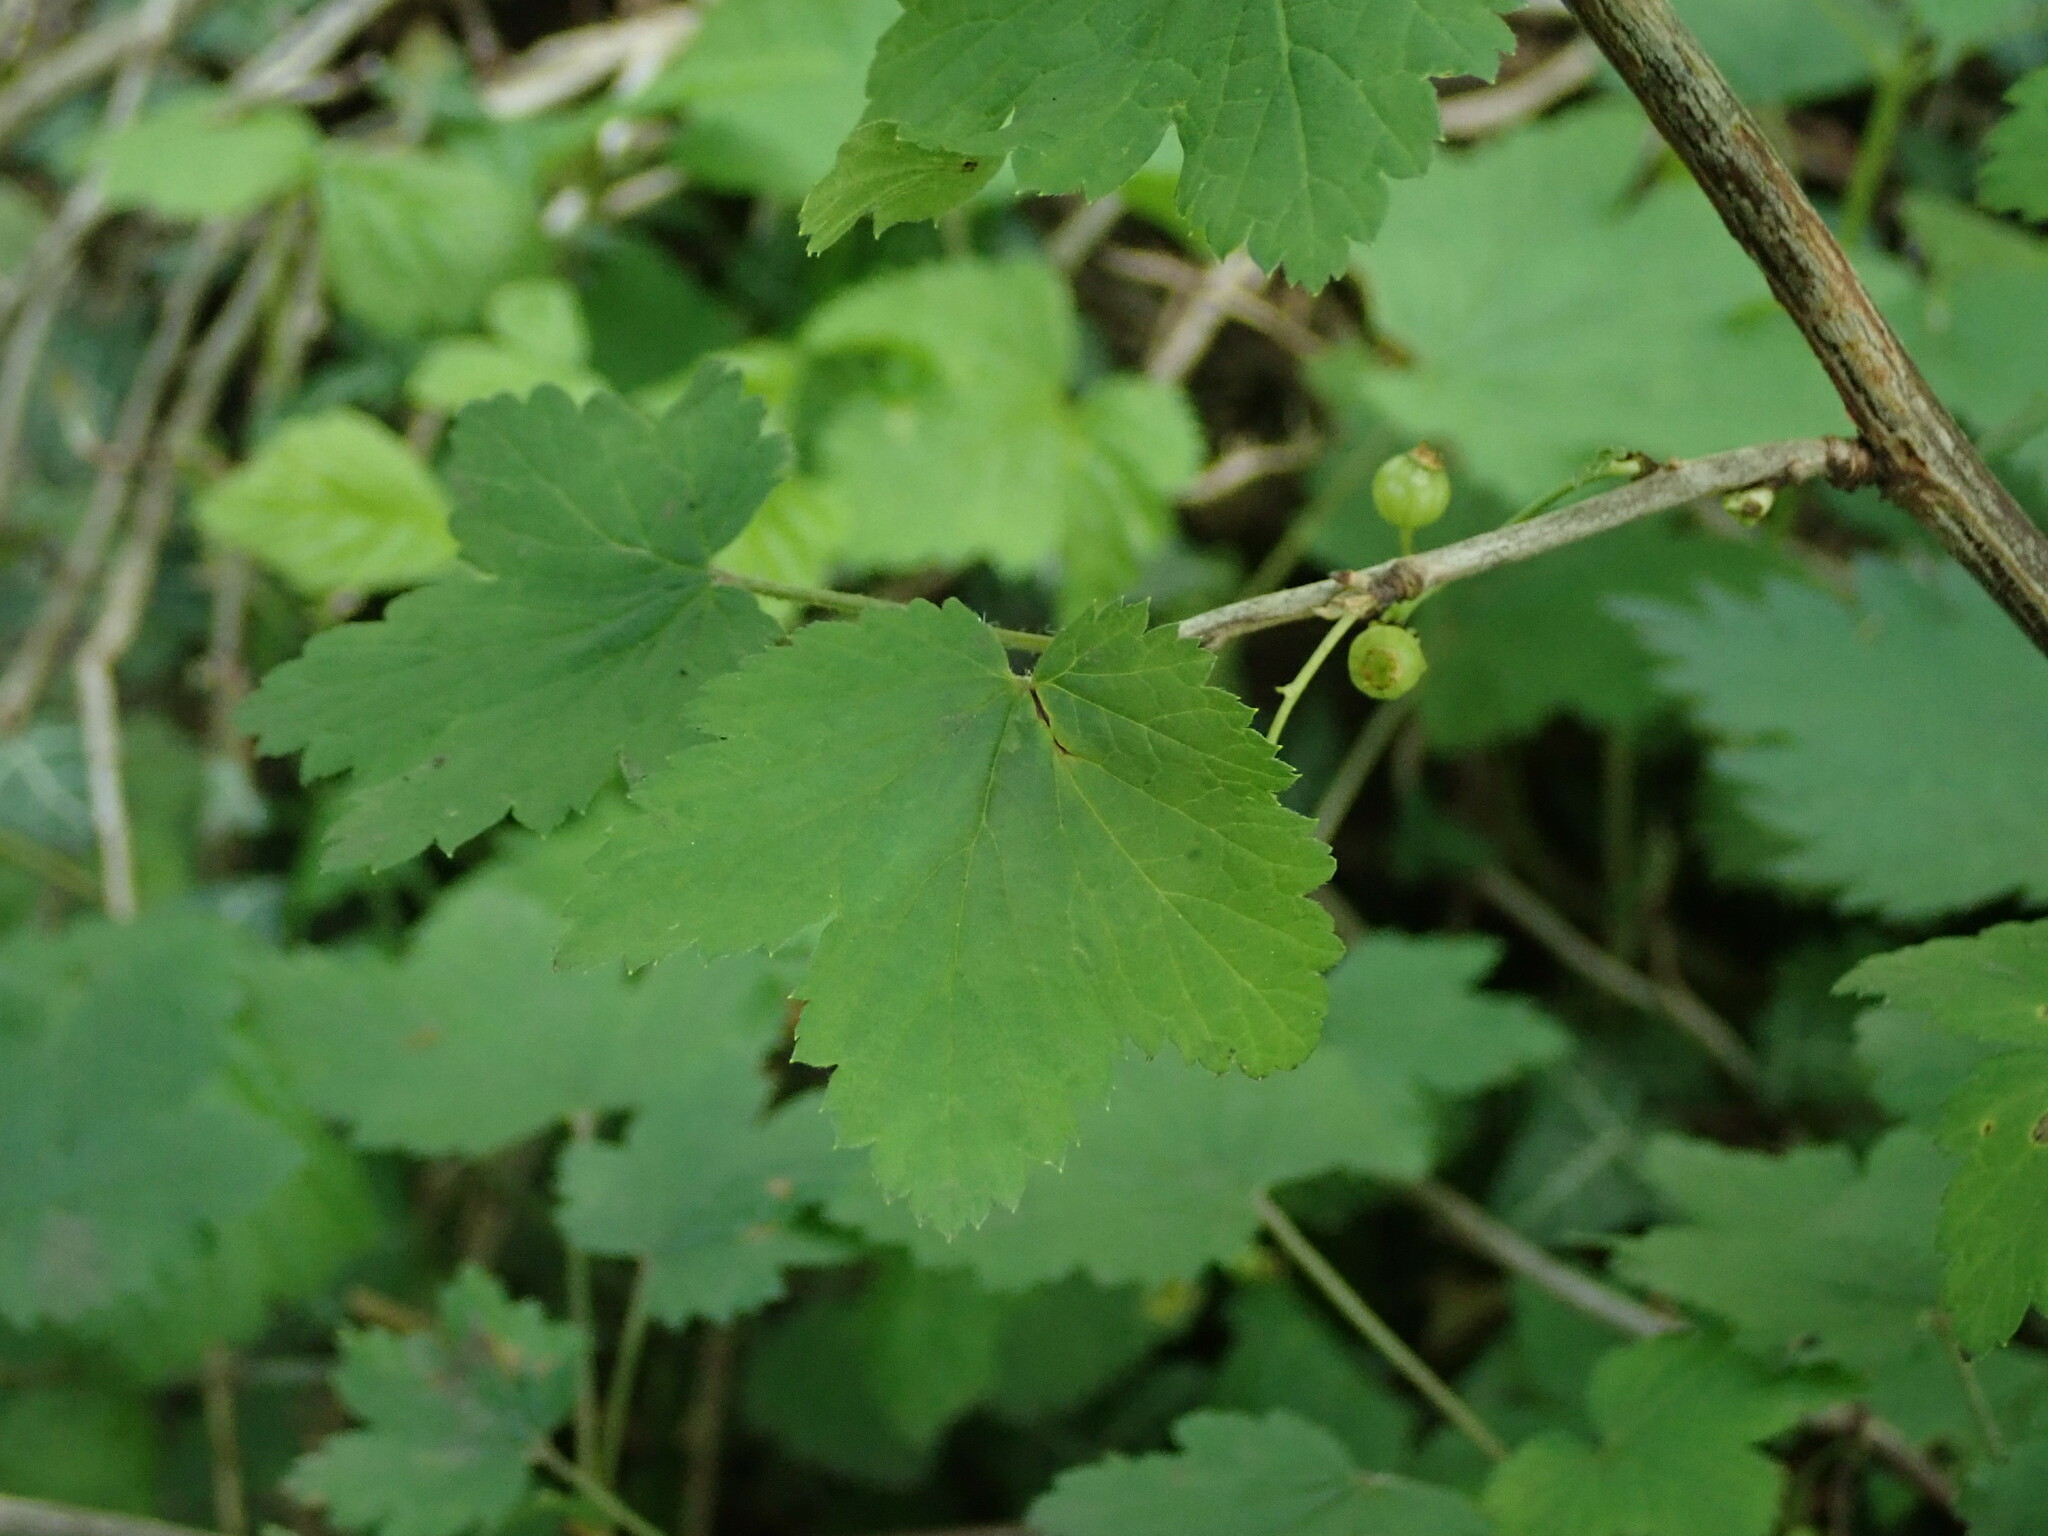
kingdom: Plantae
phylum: Tracheophyta
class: Magnoliopsida
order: Saxifragales
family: Grossulariaceae
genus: Ribes
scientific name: Ribes rubrum
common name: Red currant
